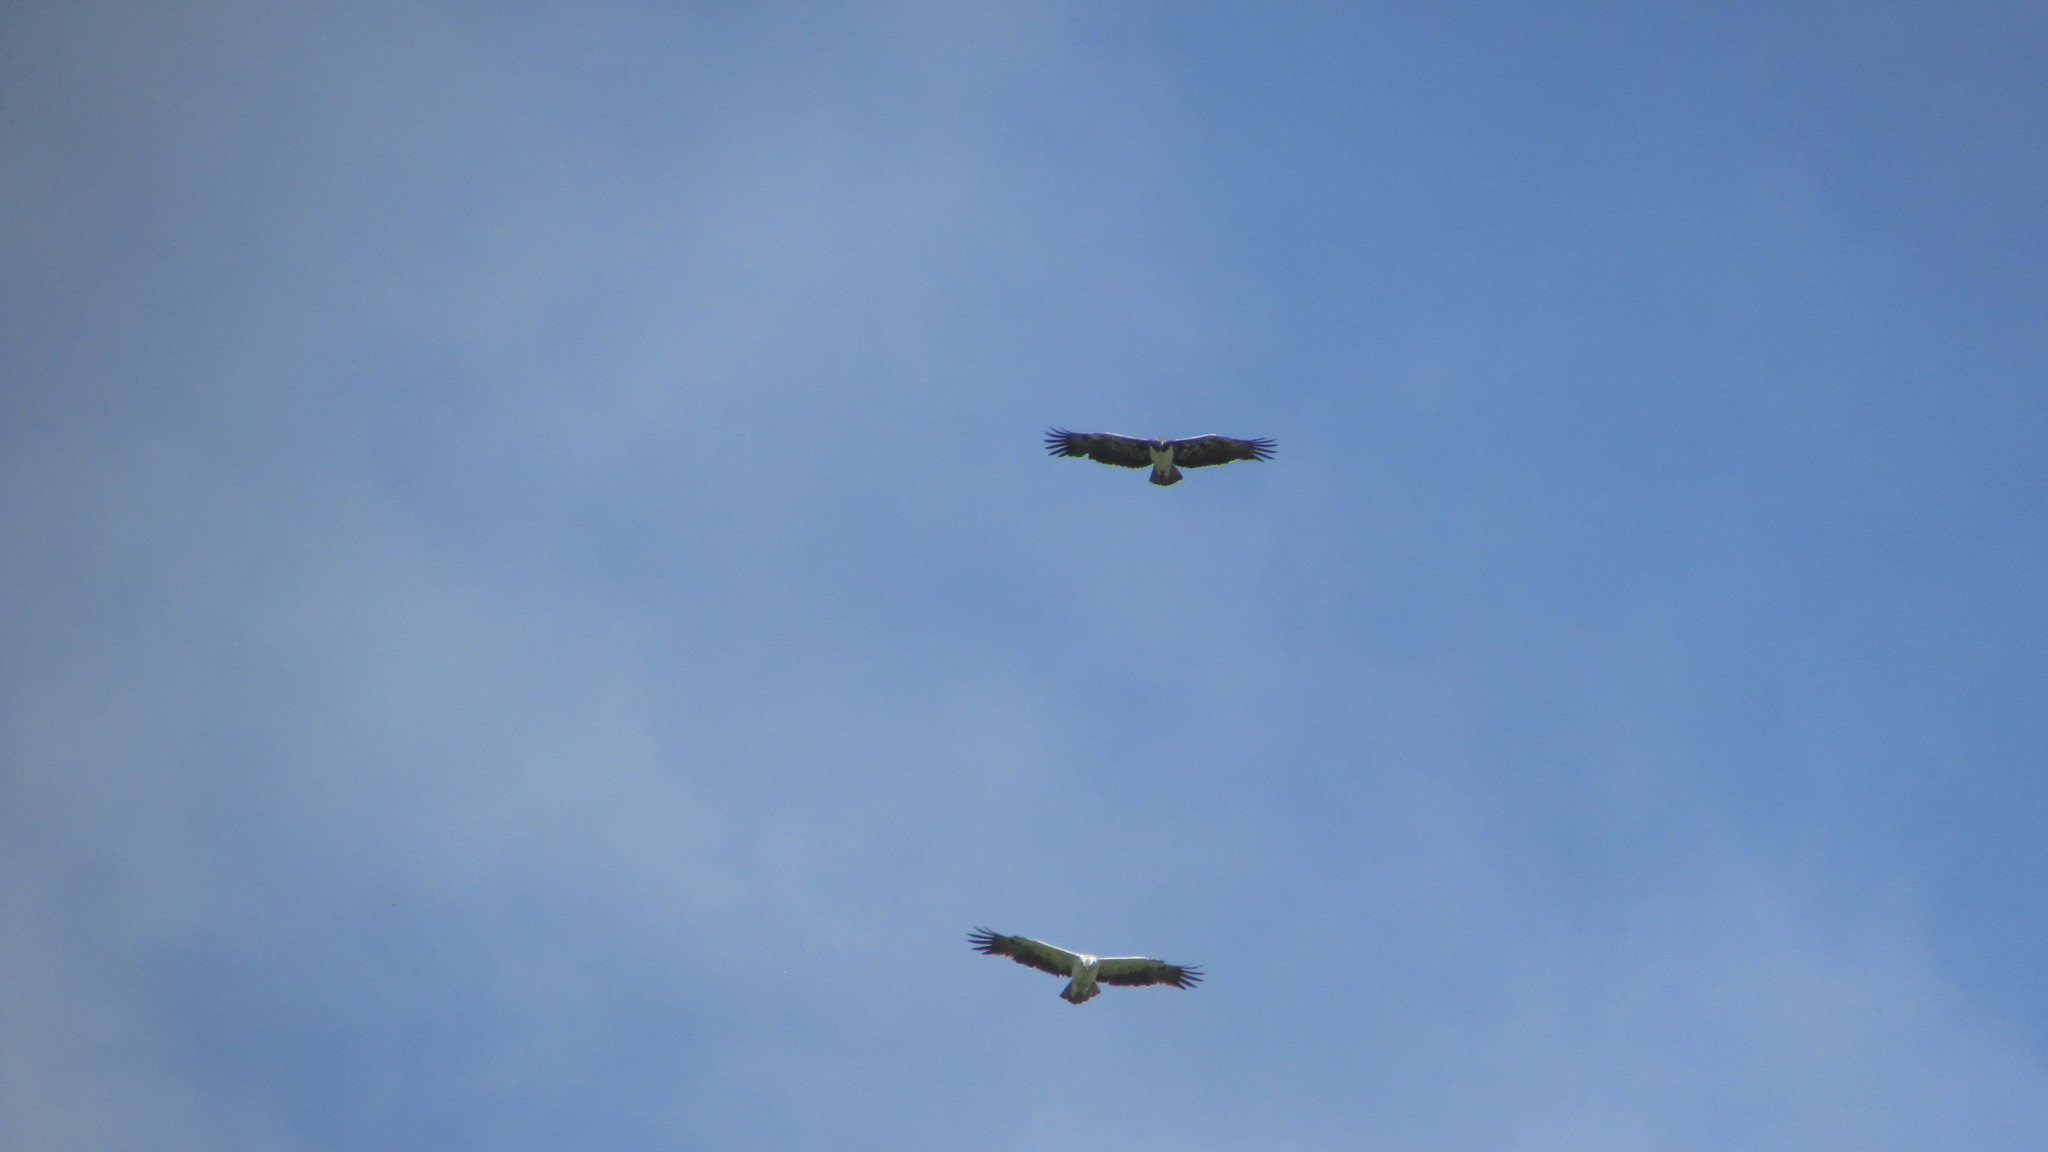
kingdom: Animalia
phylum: Chordata
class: Aves
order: Accipitriformes
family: Accipitridae
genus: Polemaetus
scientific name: Polemaetus bellicosus
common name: Martial eagle
